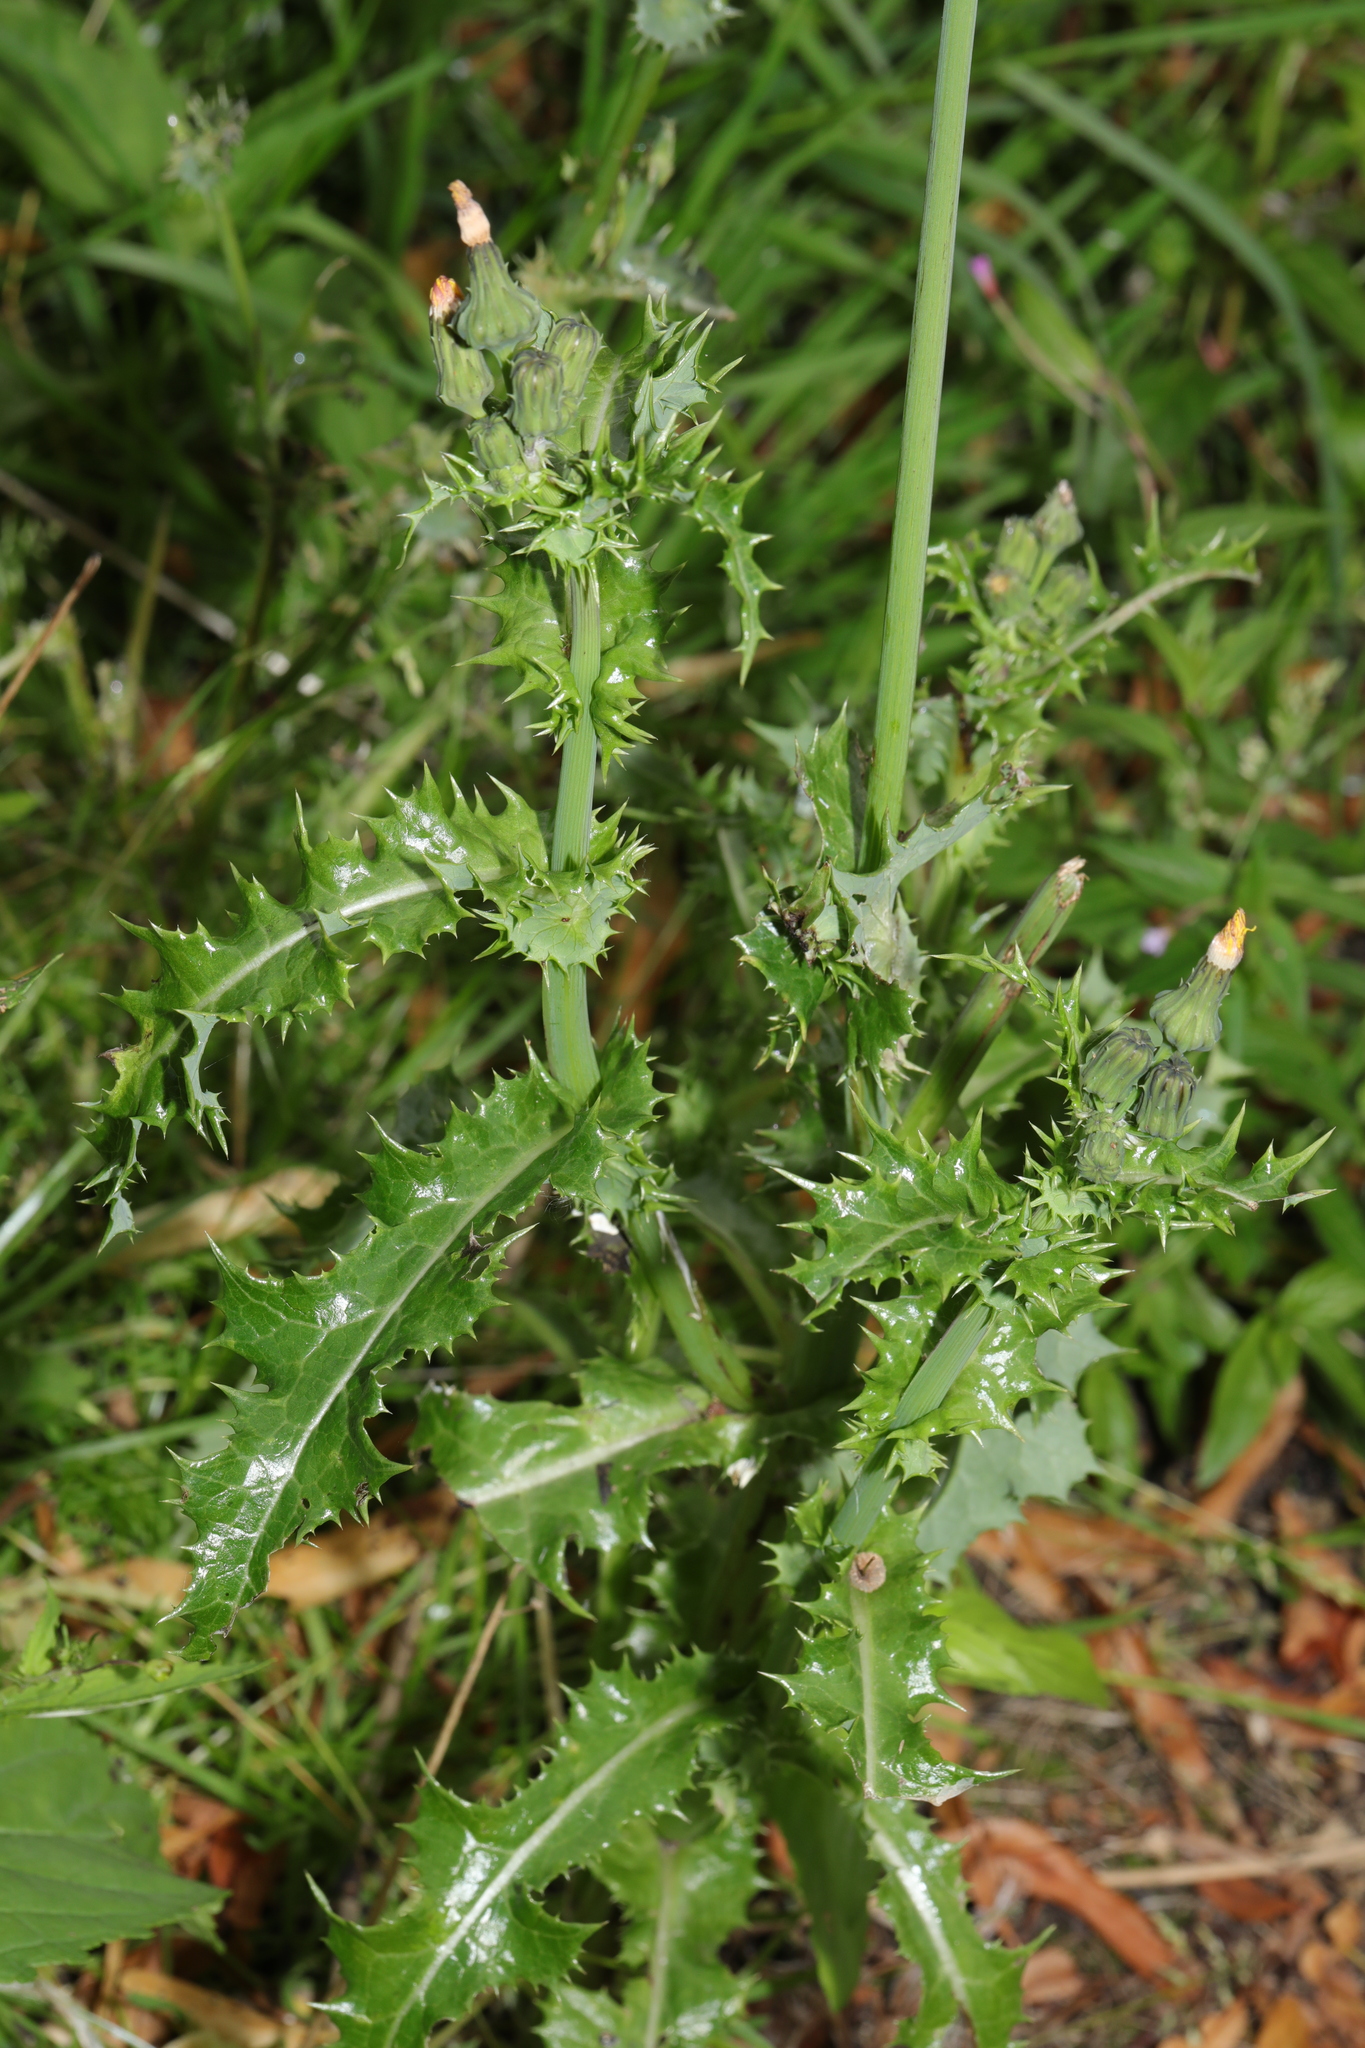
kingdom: Plantae
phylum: Tracheophyta
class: Magnoliopsida
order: Asterales
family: Asteraceae
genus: Sonchus
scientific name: Sonchus asper
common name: Prickly sow-thistle
